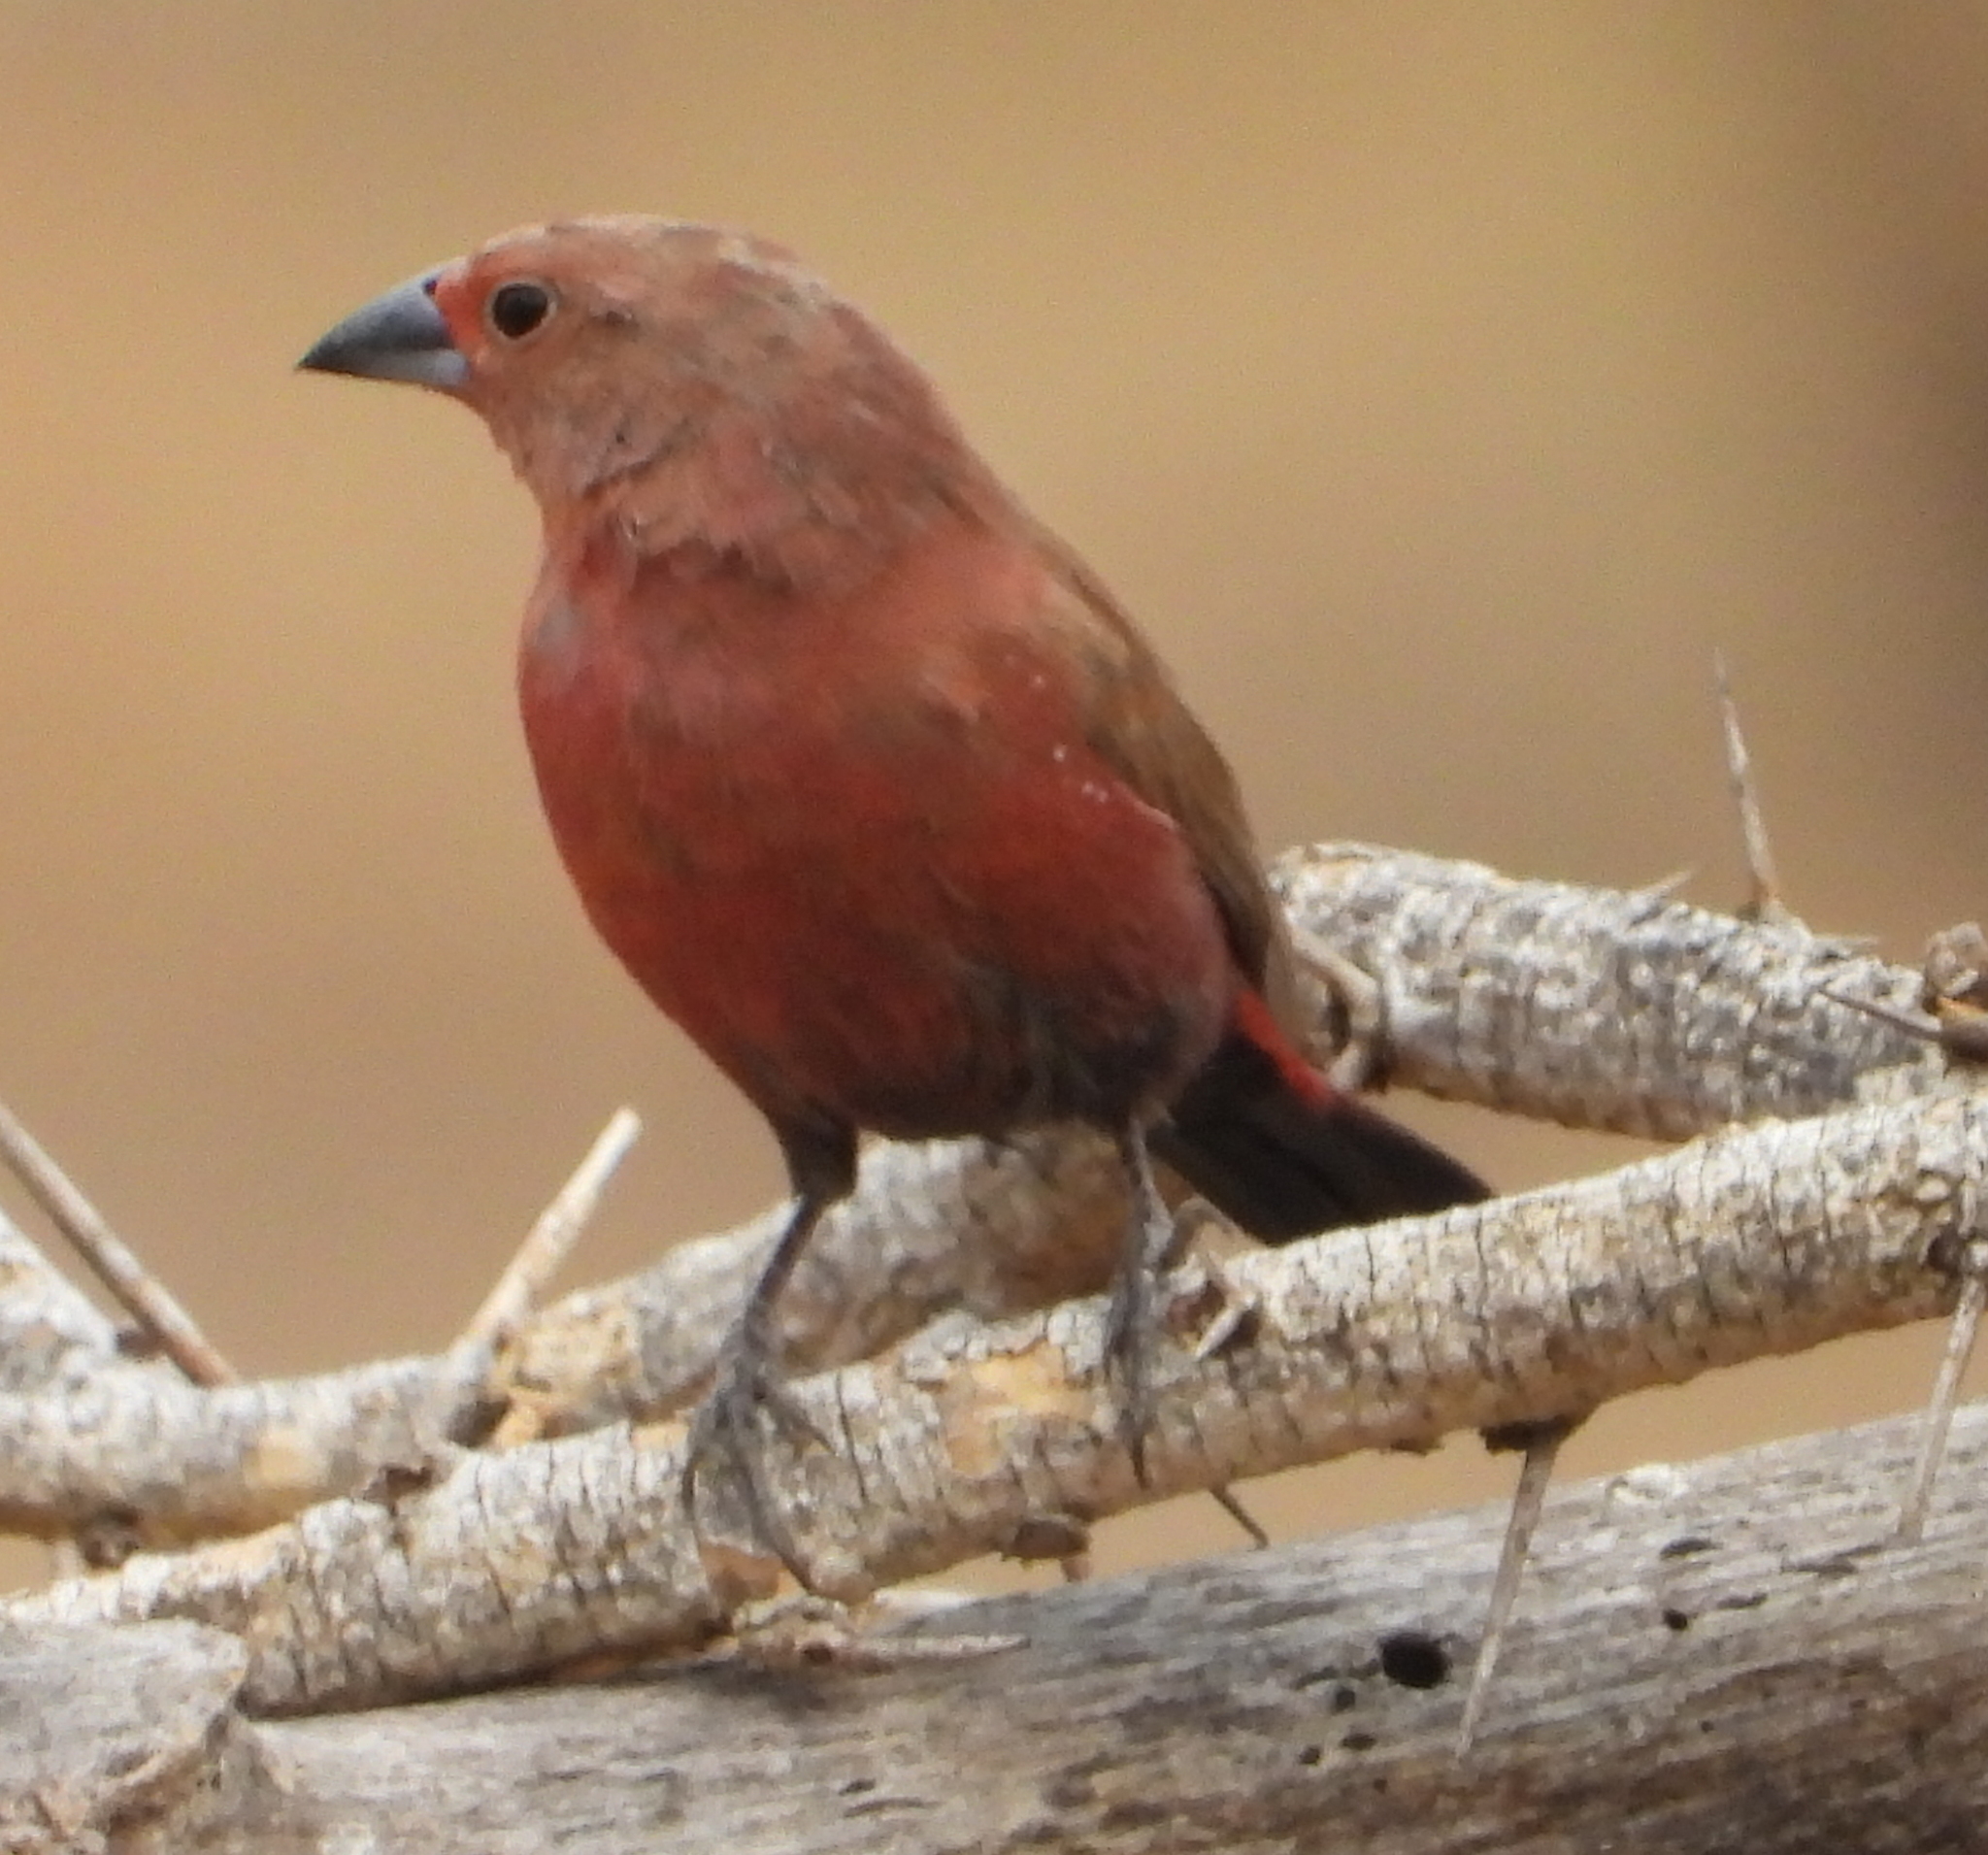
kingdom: Animalia
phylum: Chordata
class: Aves
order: Passeriformes
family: Estrildidae
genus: Lagonosticta
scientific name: Lagonosticta rhodopareia
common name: Jameson's firefinch
